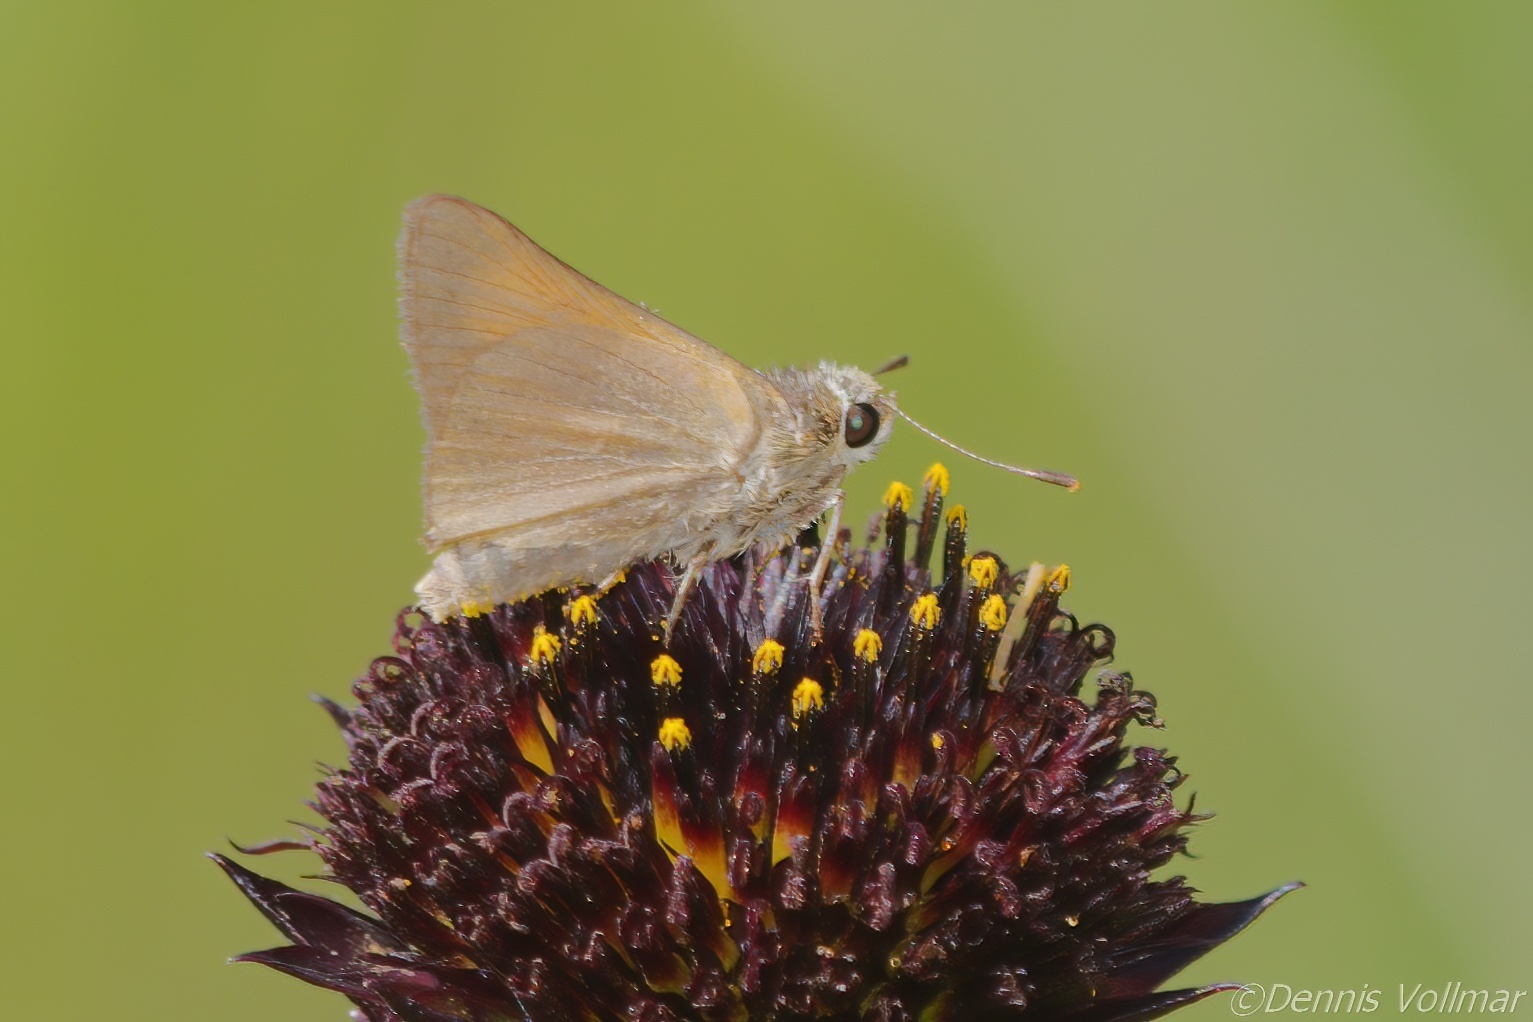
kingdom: Animalia
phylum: Arthropoda
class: Insecta
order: Lepidoptera
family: Hesperiidae
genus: Atrytone
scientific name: Atrytone arogos
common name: Arogos skipper
